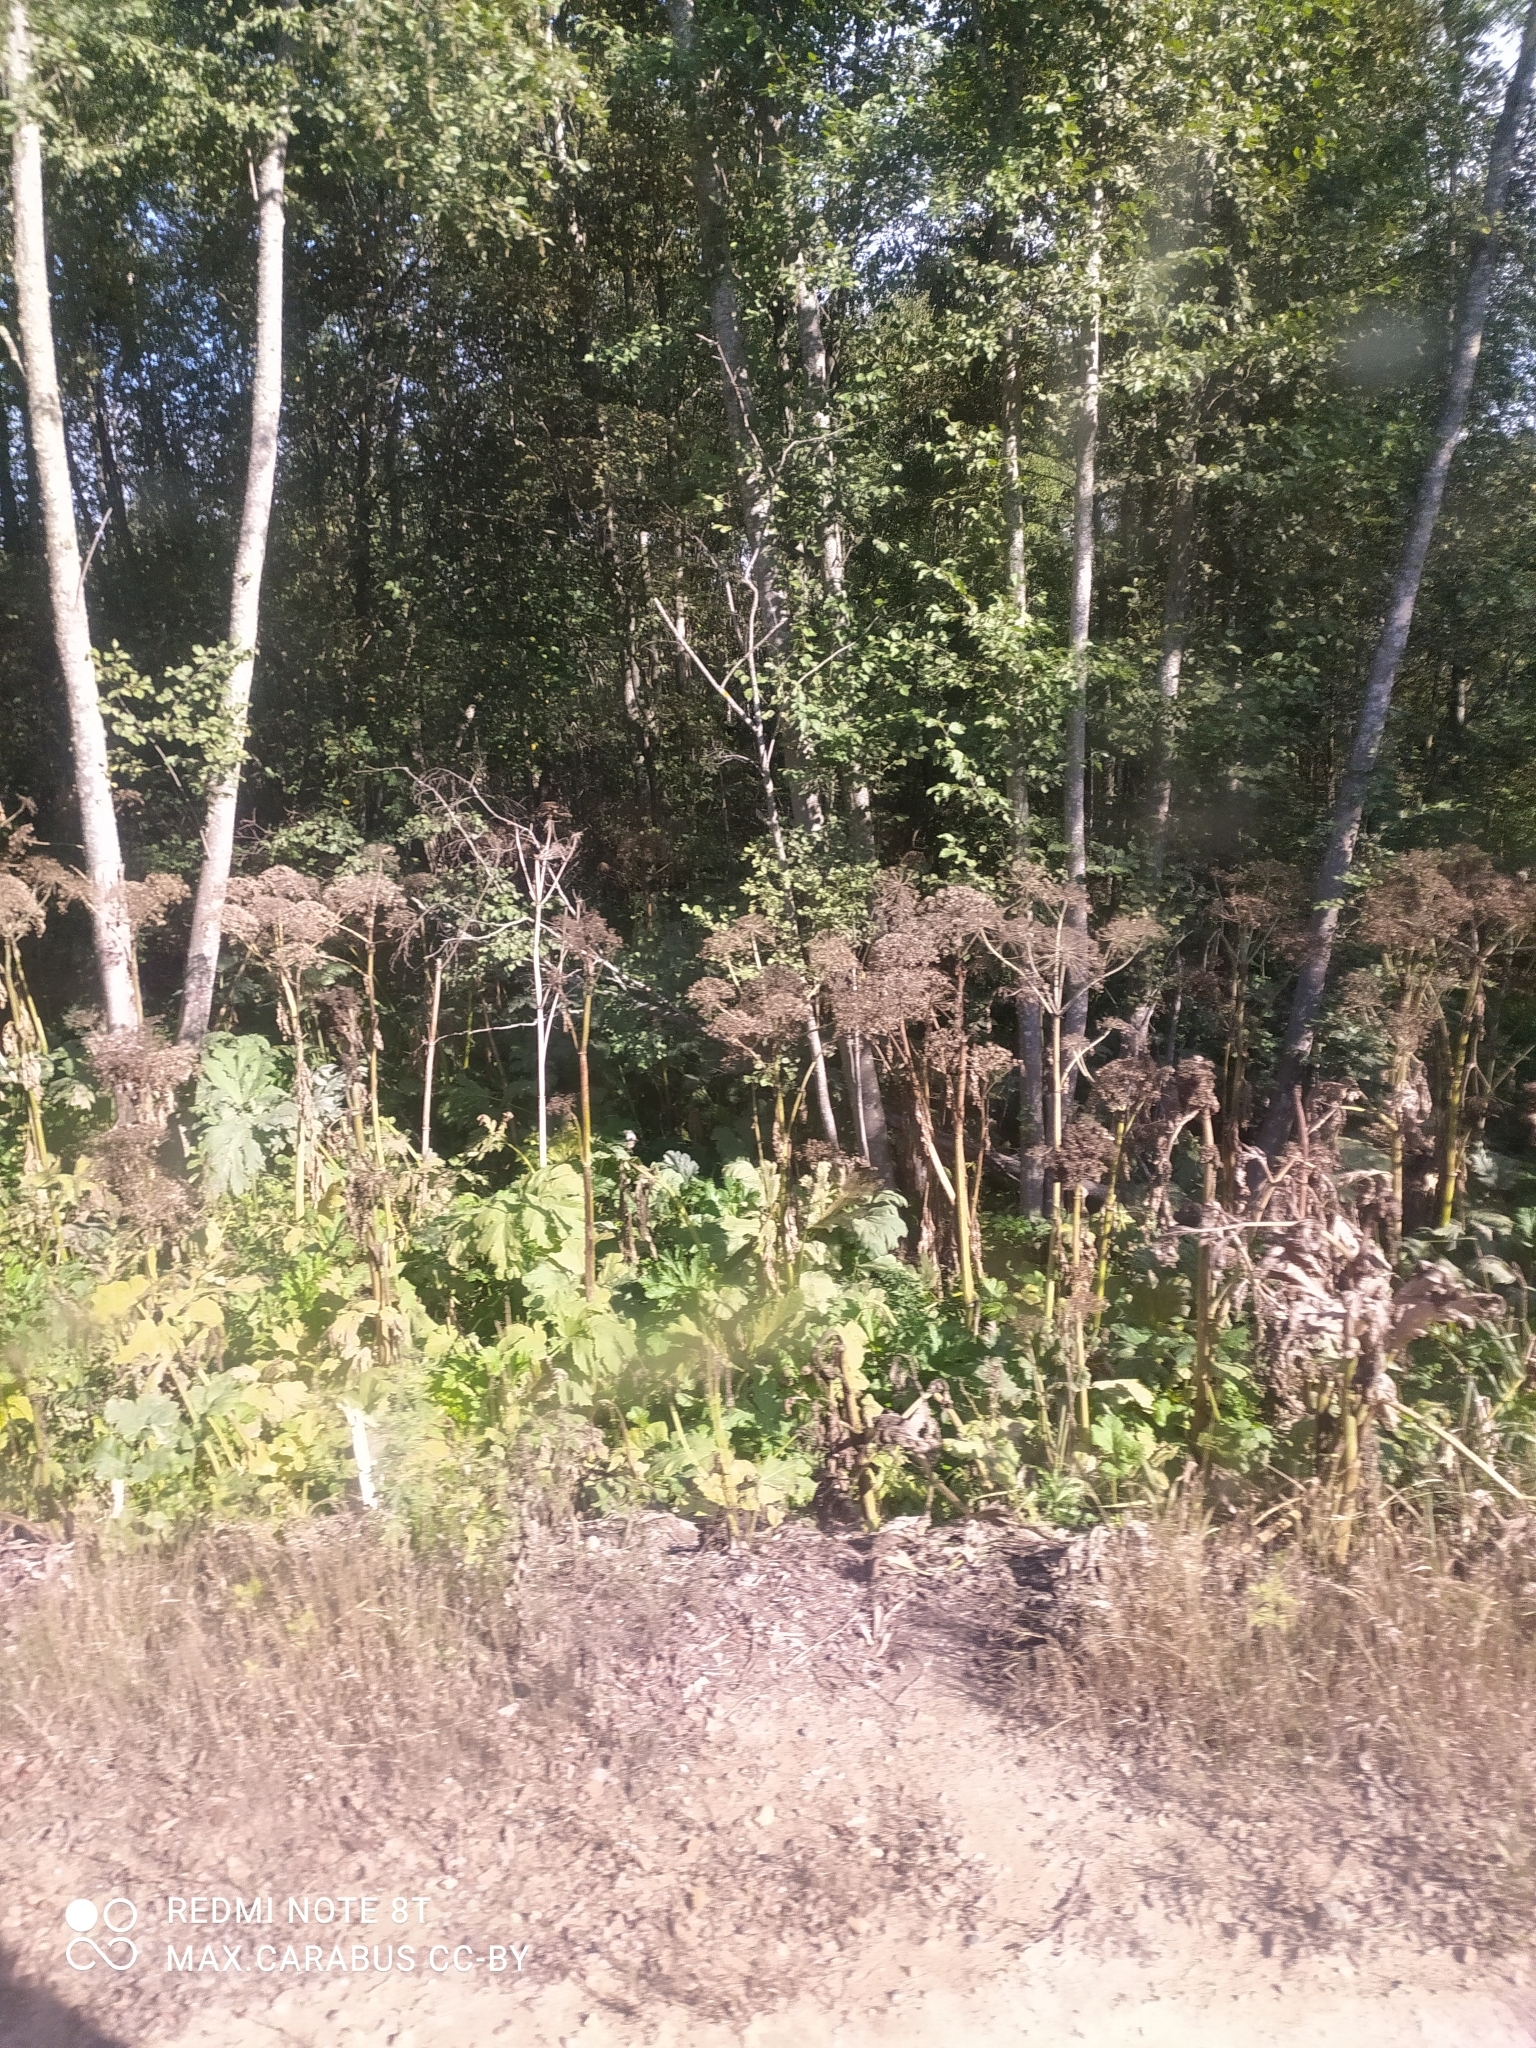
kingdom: Plantae
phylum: Tracheophyta
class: Magnoliopsida
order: Apiales
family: Apiaceae
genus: Heracleum
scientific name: Heracleum sosnowskyi
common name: Sosnowsky's hogweed
